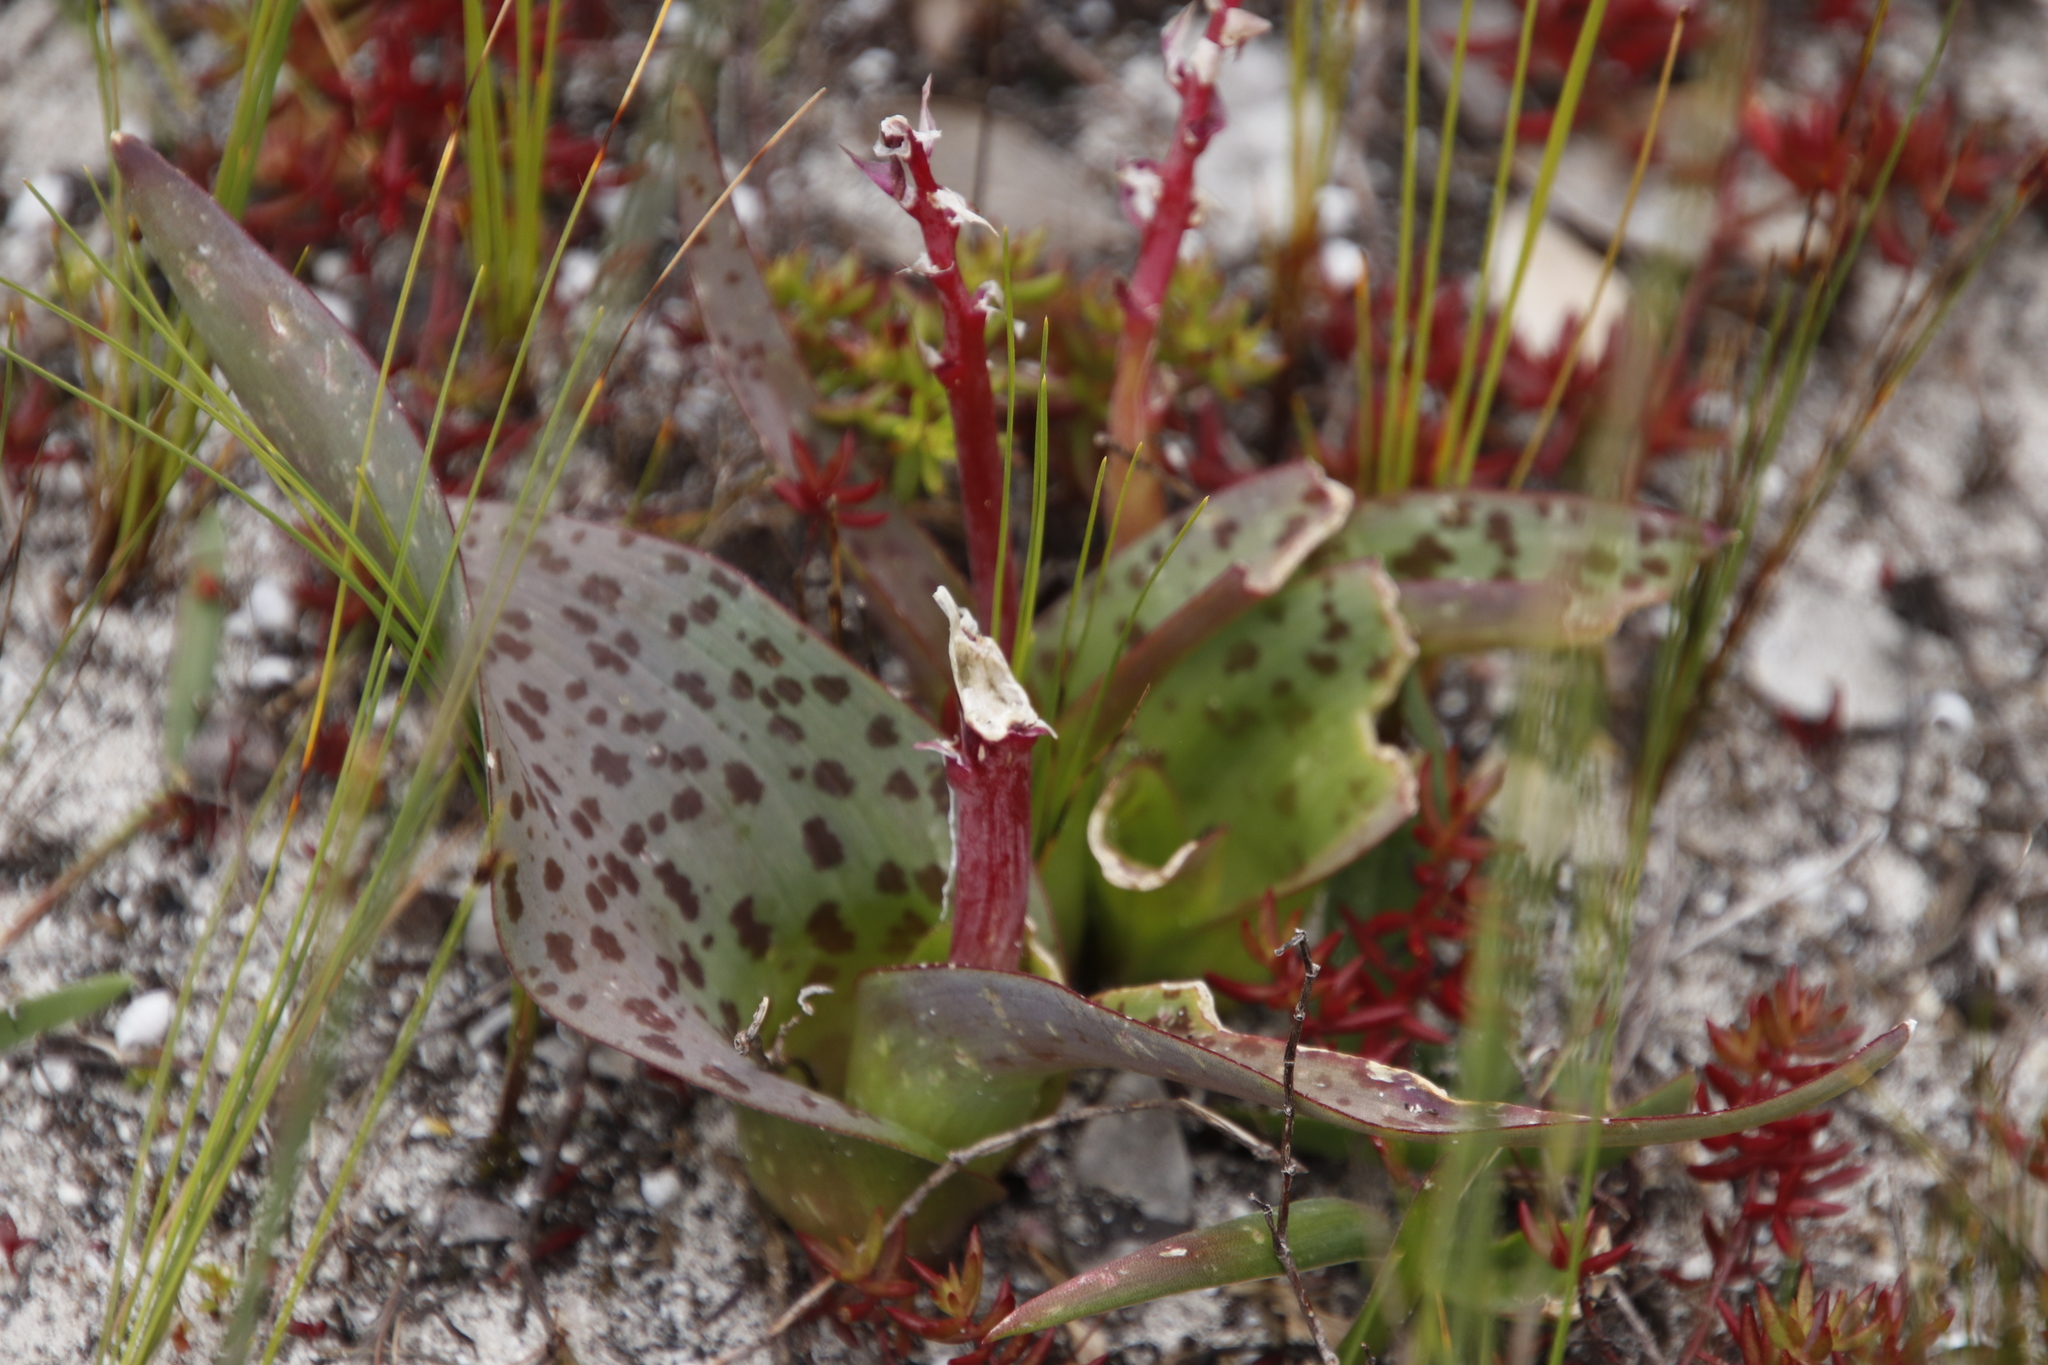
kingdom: Plantae
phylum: Tracheophyta
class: Liliopsida
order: Asparagales
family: Asparagaceae
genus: Lachenalia
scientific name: Lachenalia bulbifera
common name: Red lachenalia
